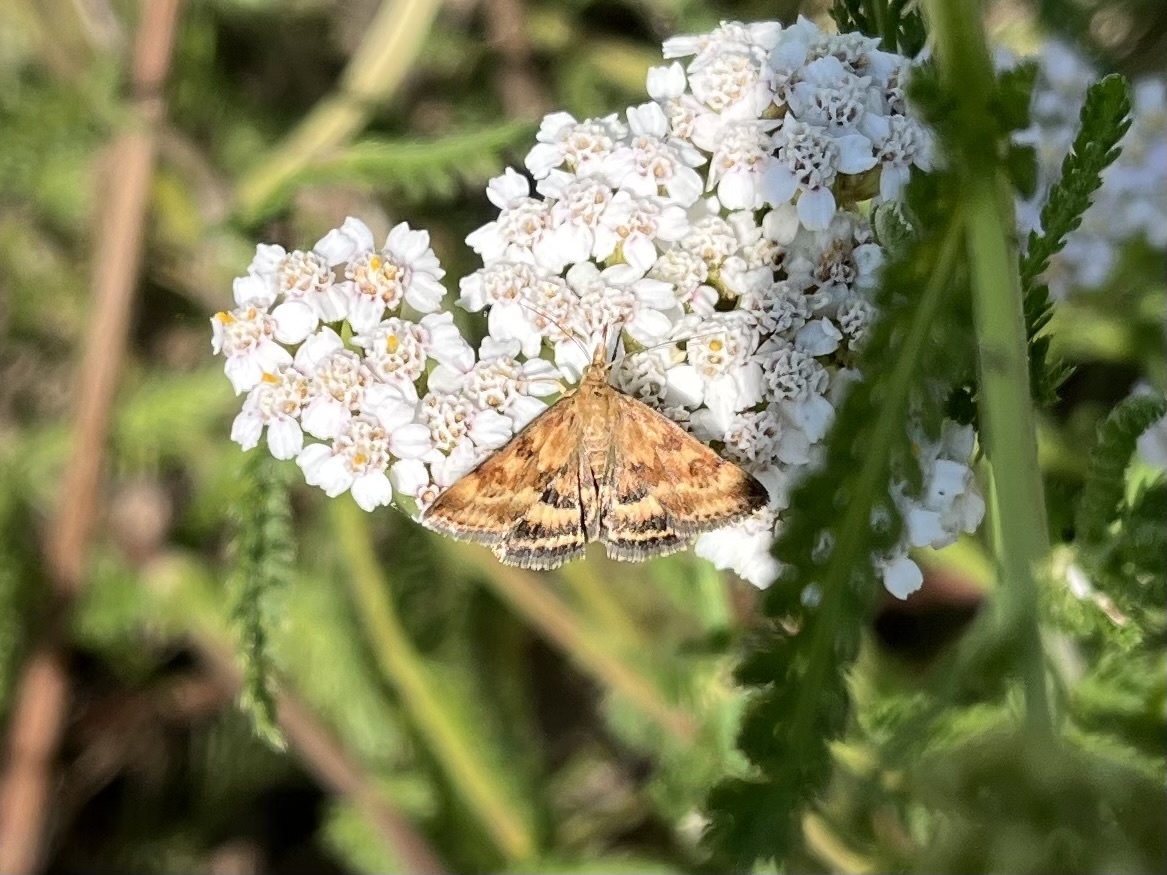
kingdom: Animalia
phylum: Arthropoda
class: Insecta
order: Lepidoptera
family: Crambidae
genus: Pyrausta
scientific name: Pyrausta despicata
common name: Straw-barred pearl
